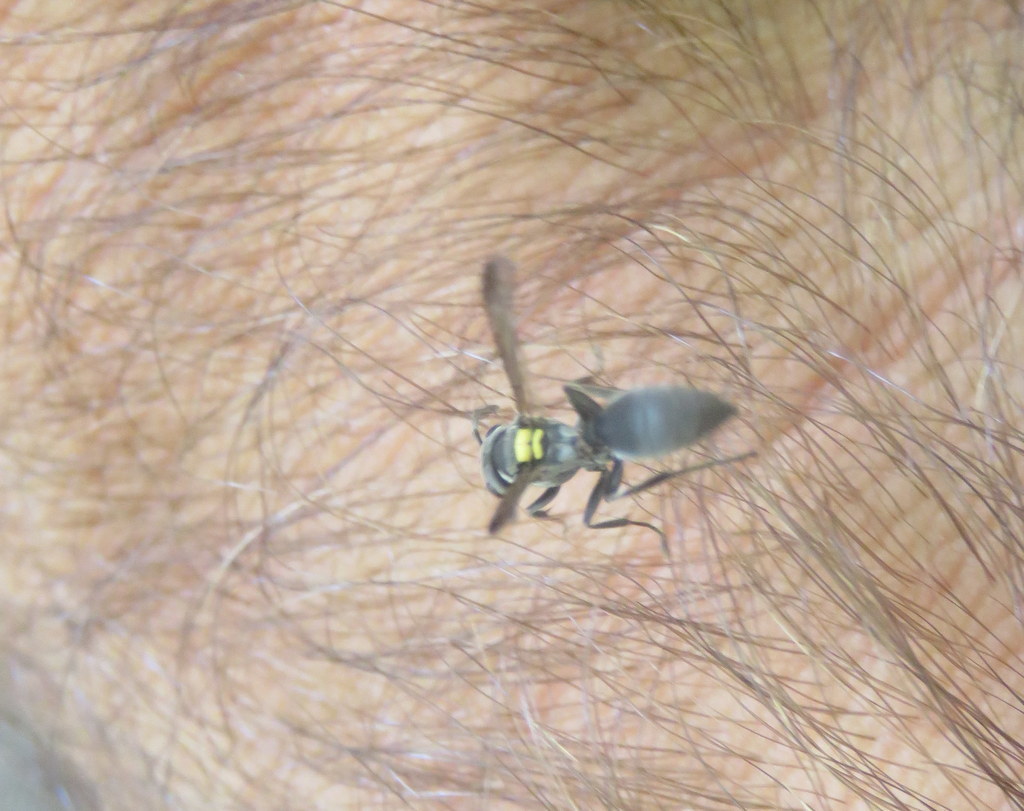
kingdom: Animalia
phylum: Arthropoda
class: Insecta
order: Hymenoptera
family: Eumenidae
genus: Polybia
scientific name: Polybia scutellaris
